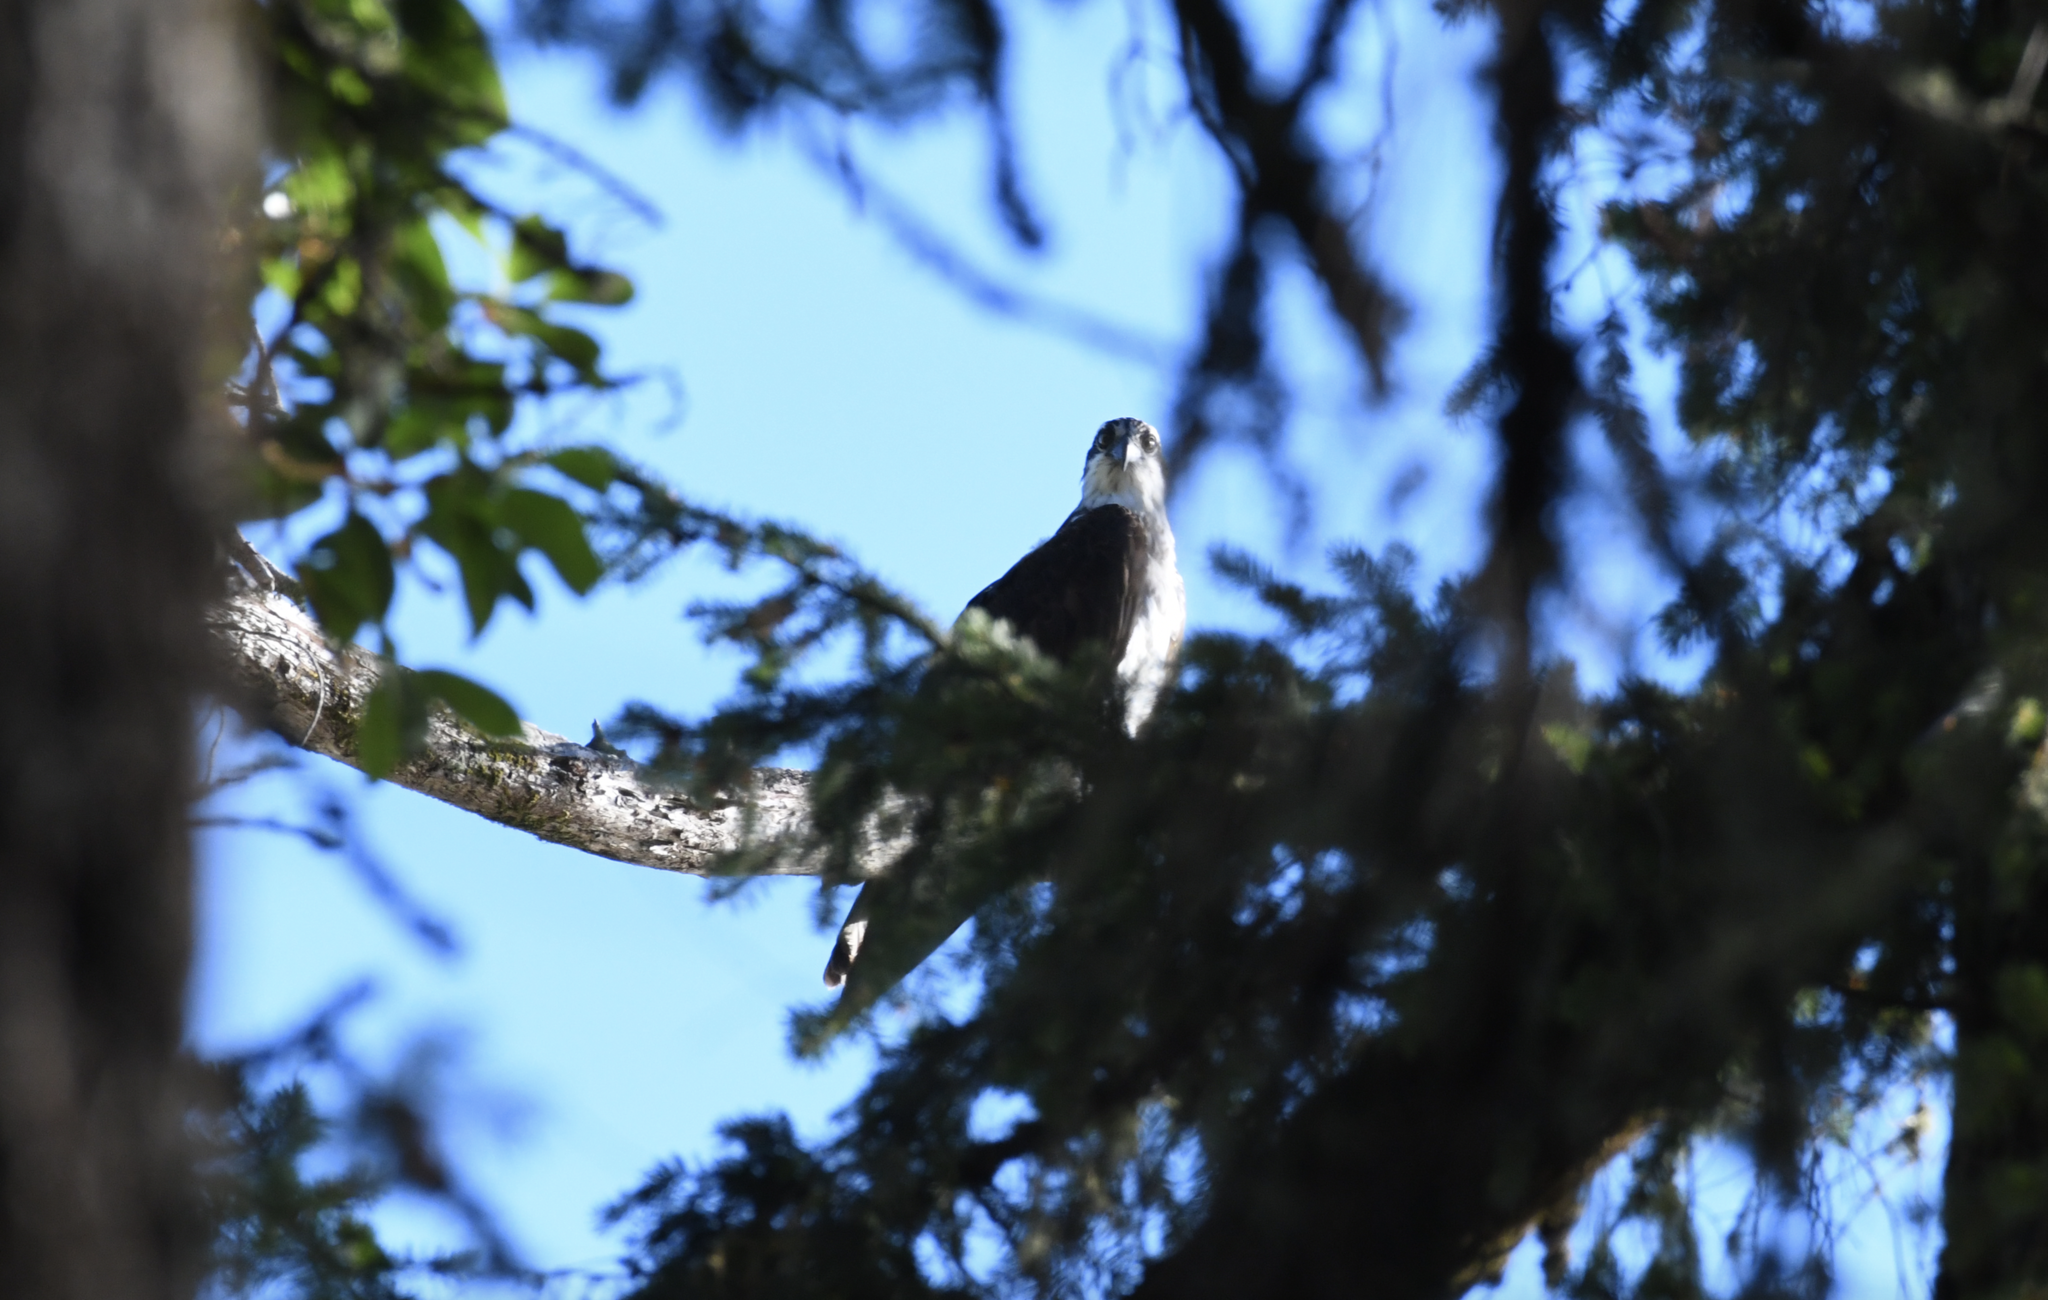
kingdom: Animalia
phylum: Chordata
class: Aves
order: Accipitriformes
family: Pandionidae
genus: Pandion
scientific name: Pandion haliaetus
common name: Osprey
